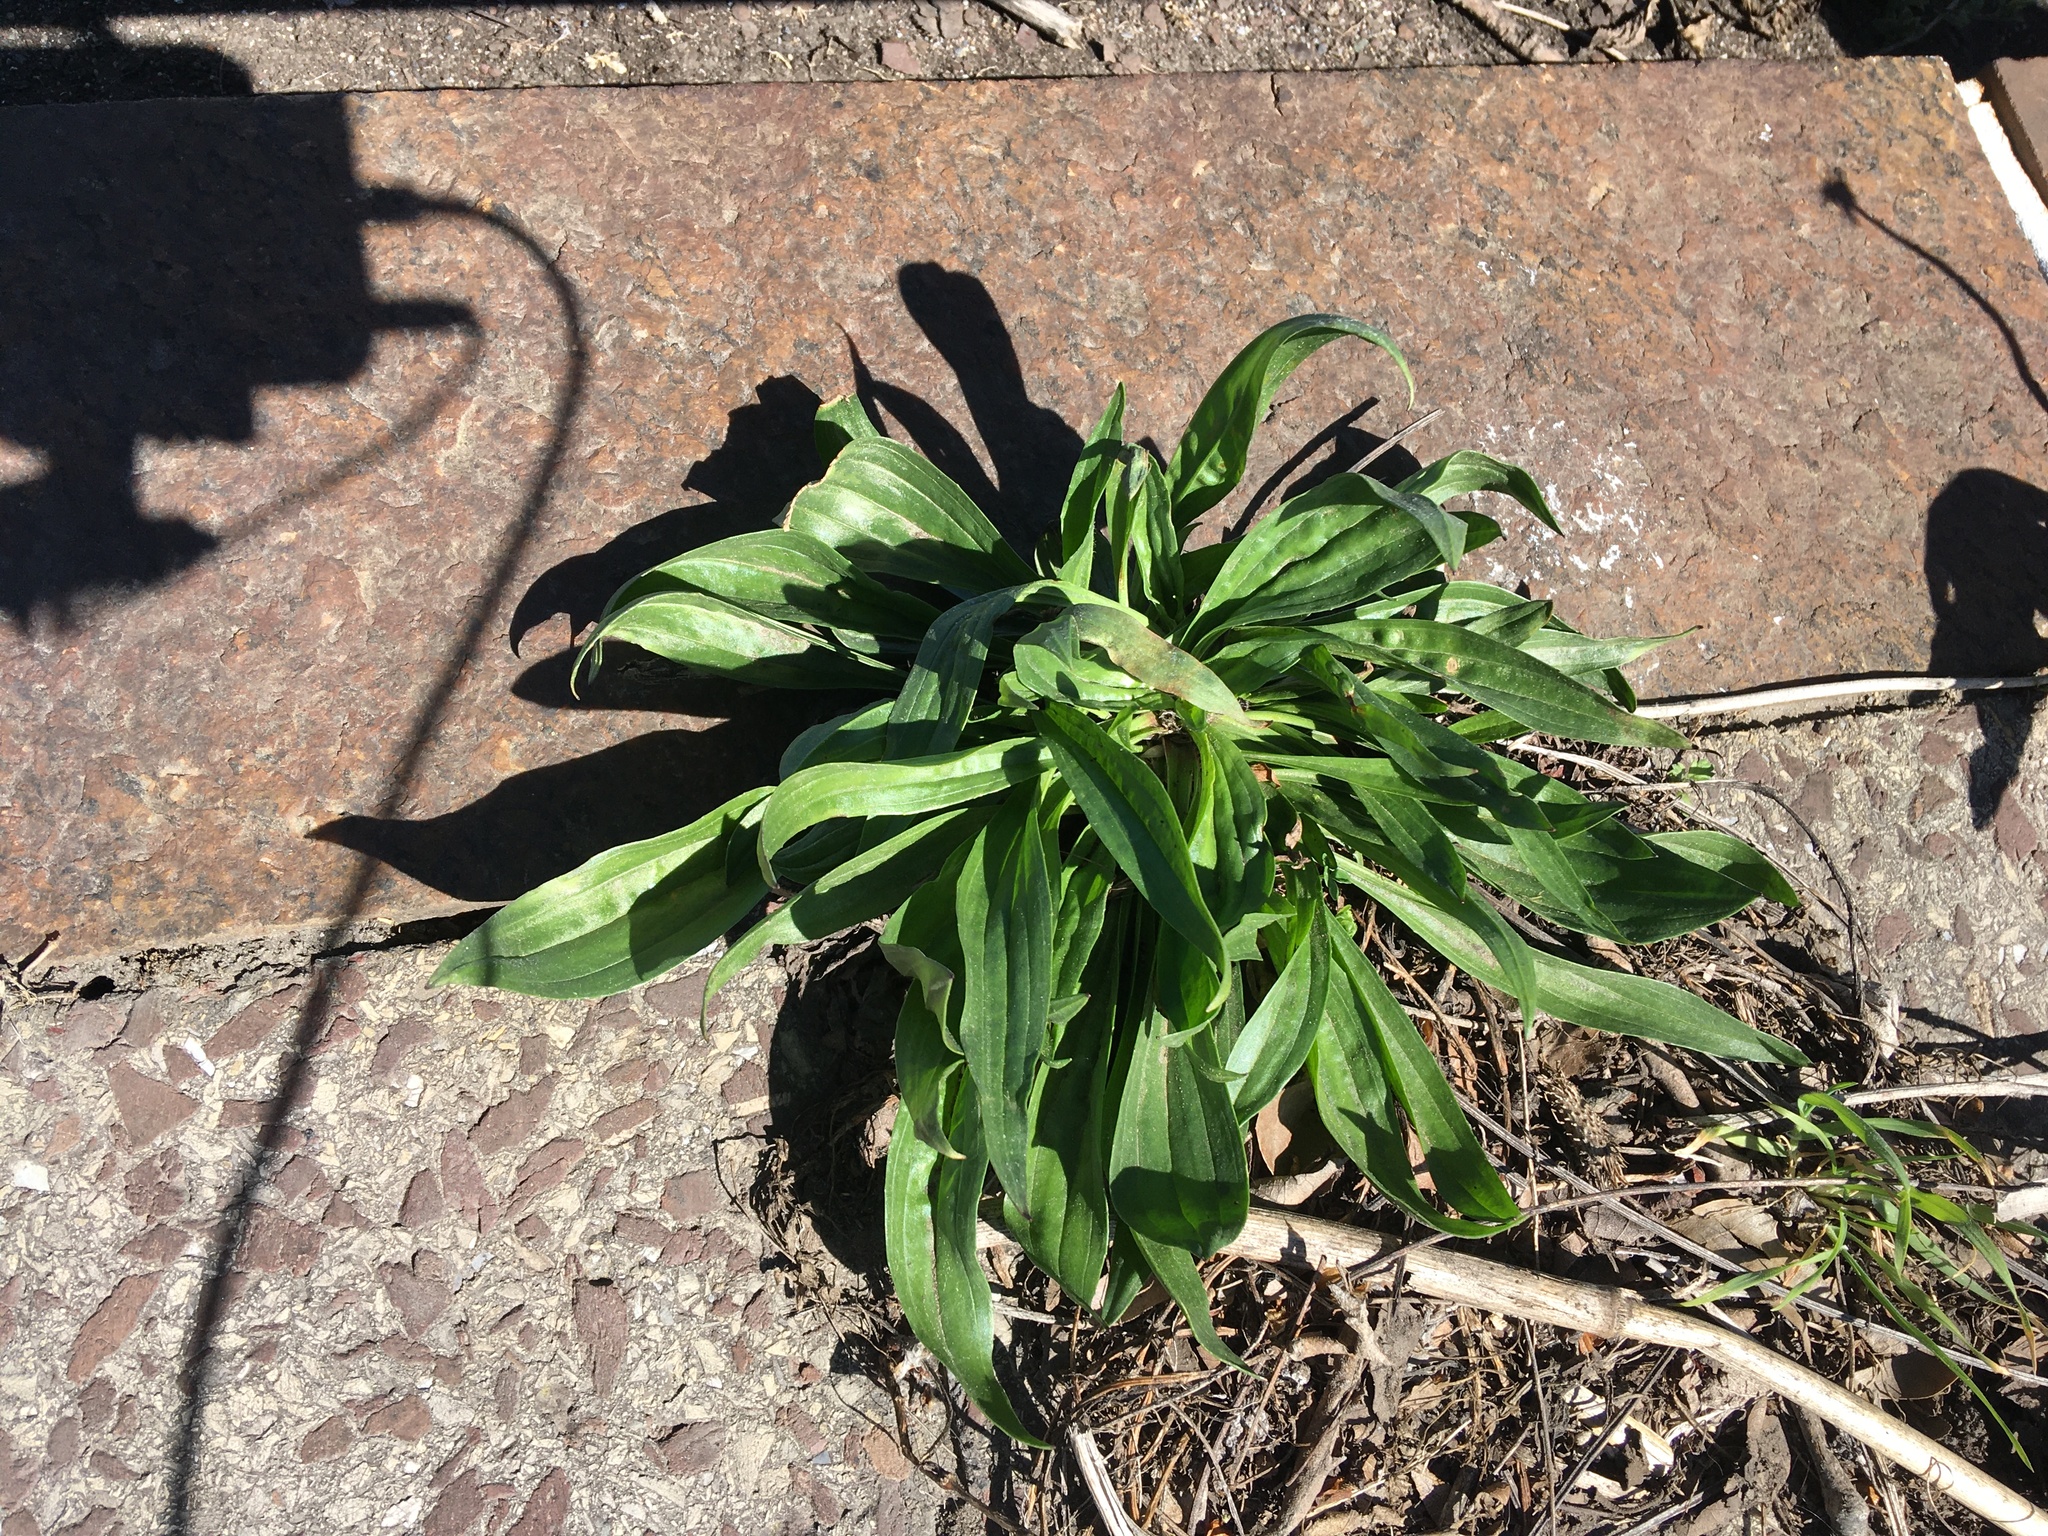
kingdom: Plantae
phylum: Tracheophyta
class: Magnoliopsida
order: Lamiales
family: Plantaginaceae
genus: Plantago
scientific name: Plantago lanceolata
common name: Ribwort plantain
